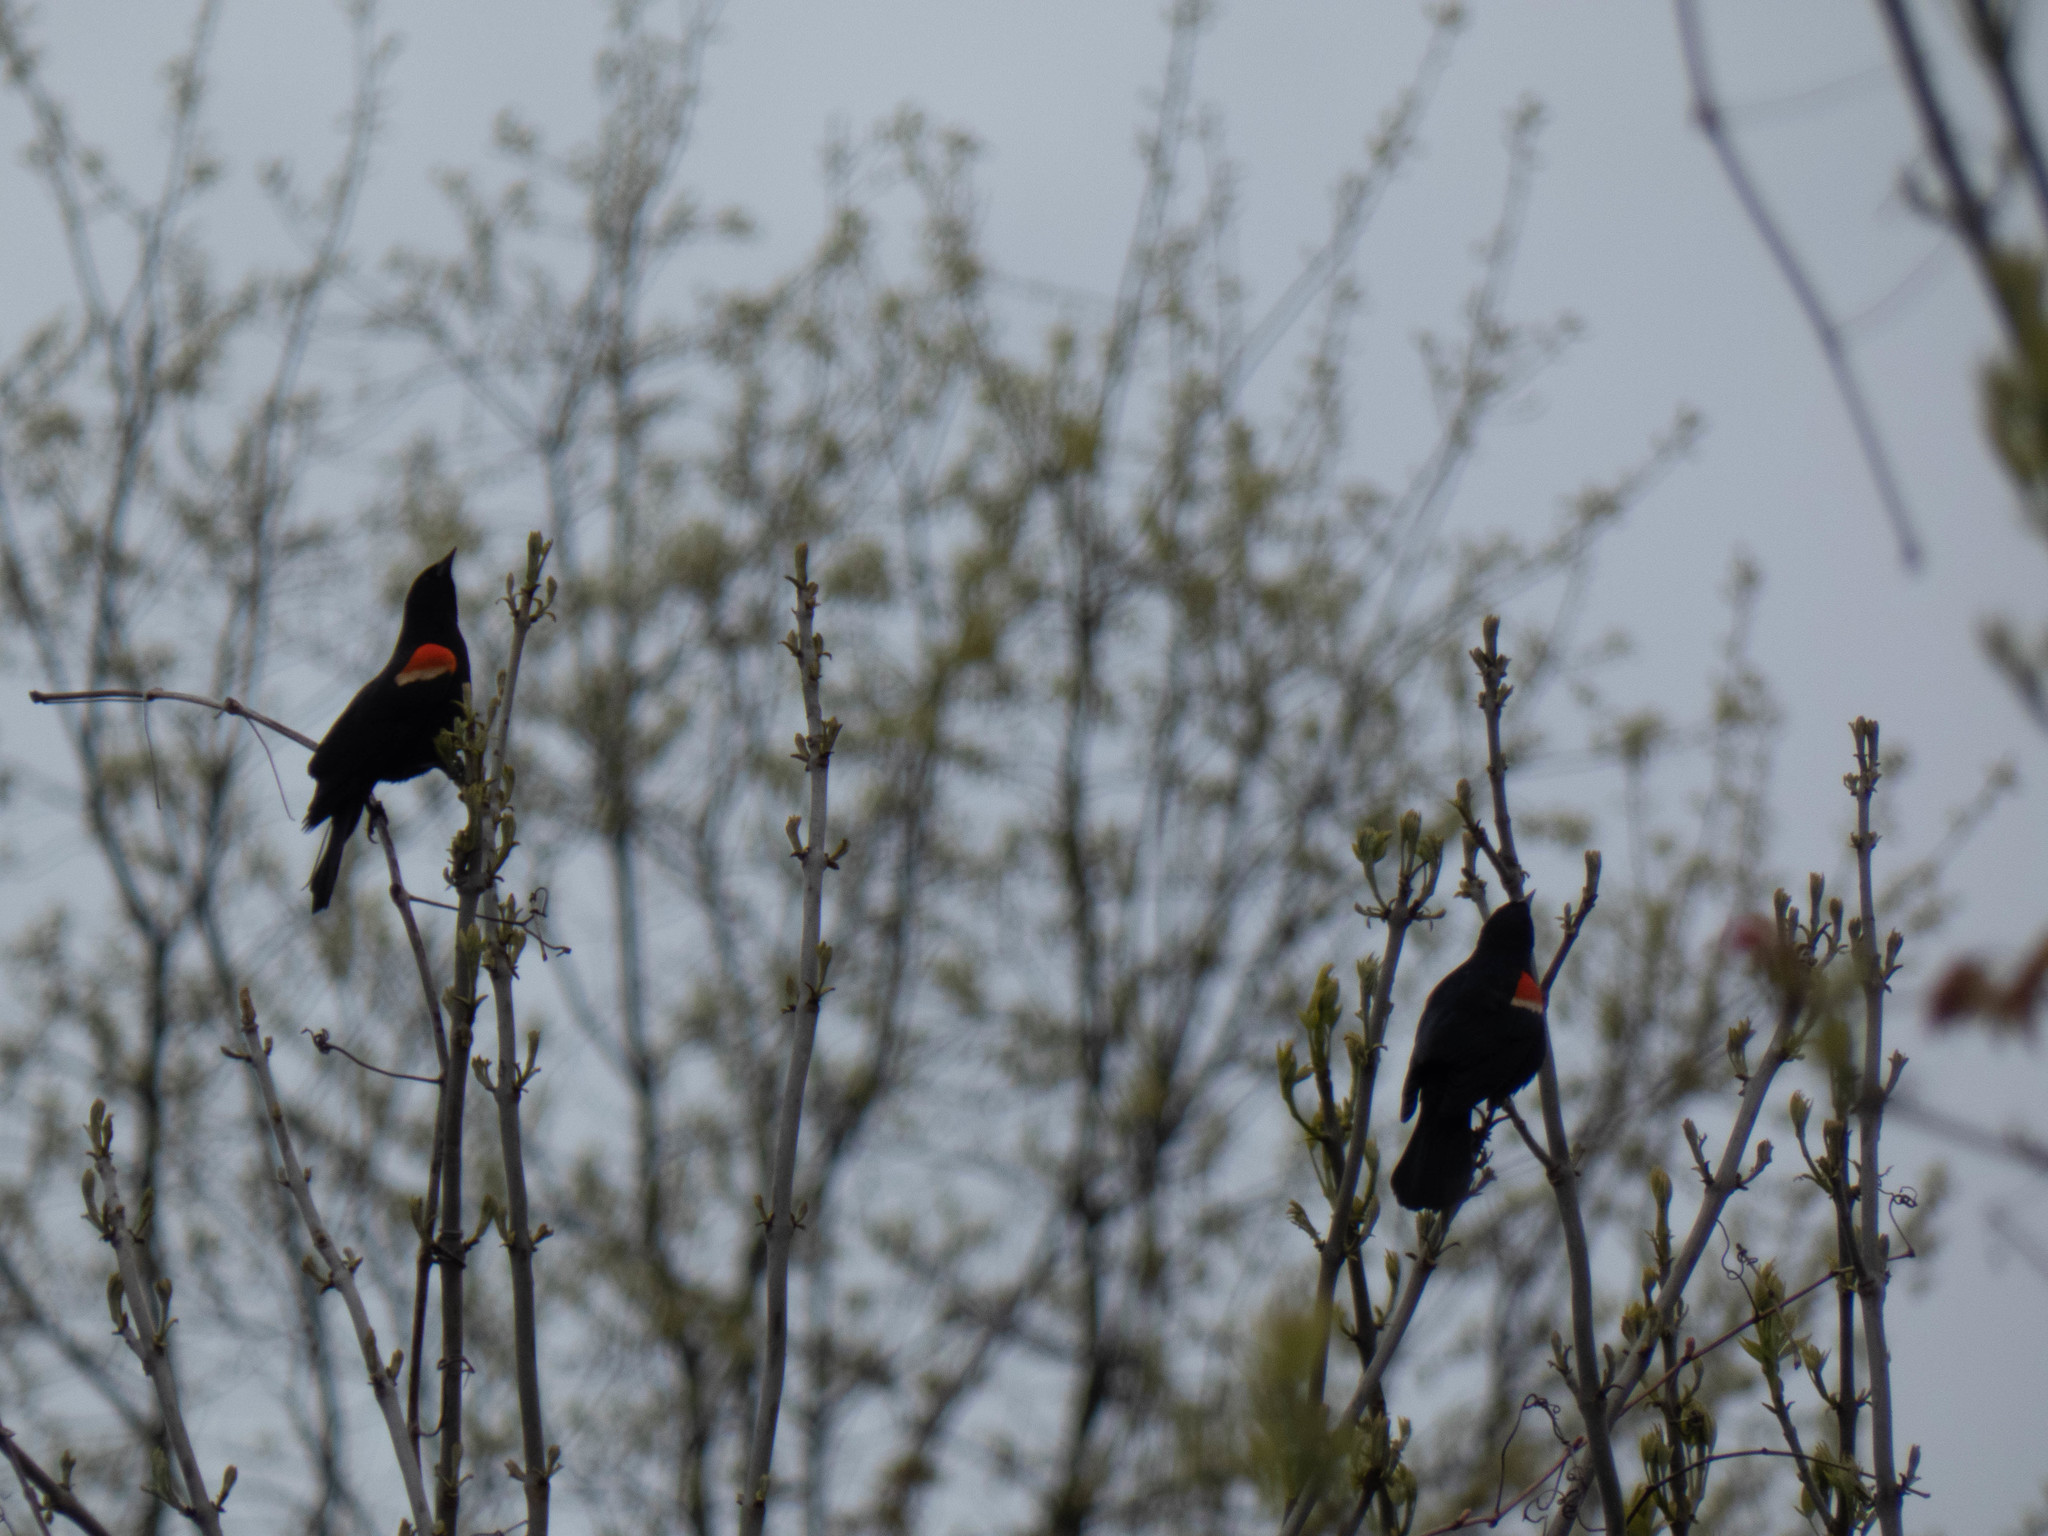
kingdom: Animalia
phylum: Chordata
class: Aves
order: Passeriformes
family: Icteridae
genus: Agelaius
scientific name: Agelaius phoeniceus
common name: Red-winged blackbird
